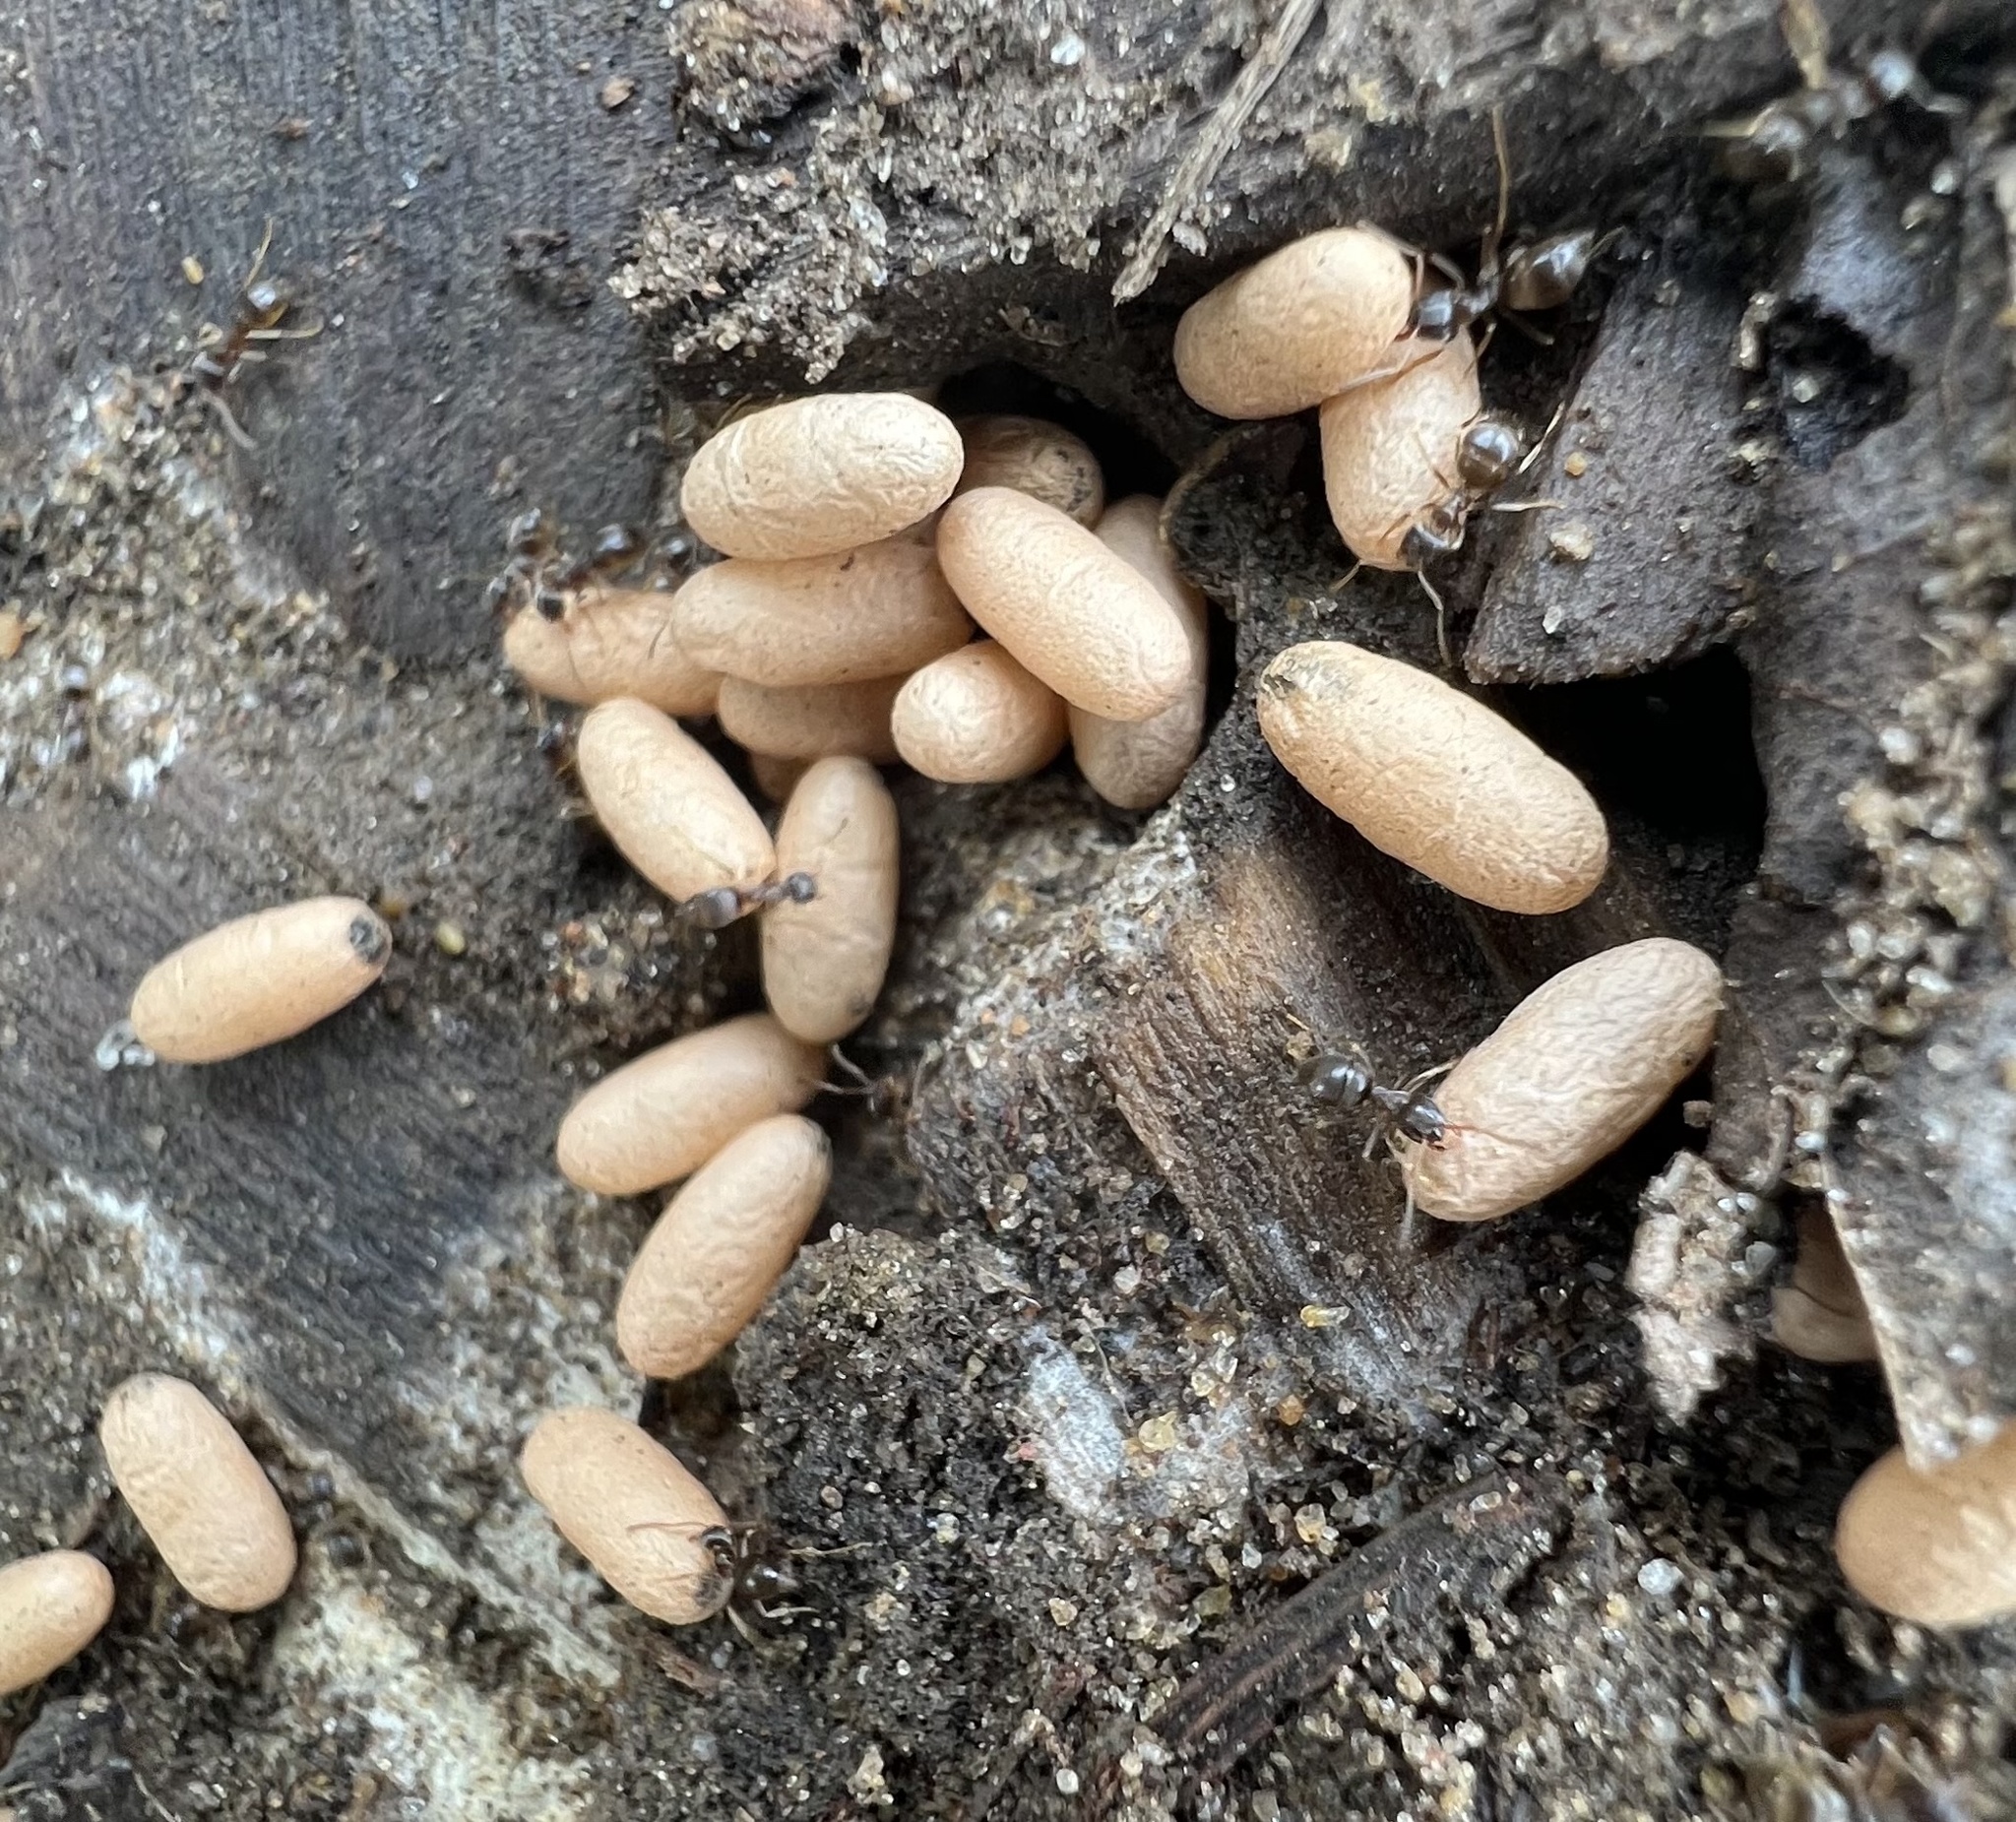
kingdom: Animalia
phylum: Arthropoda
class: Insecta
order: Hymenoptera
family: Formicidae
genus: Lasius
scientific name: Lasius americanus
